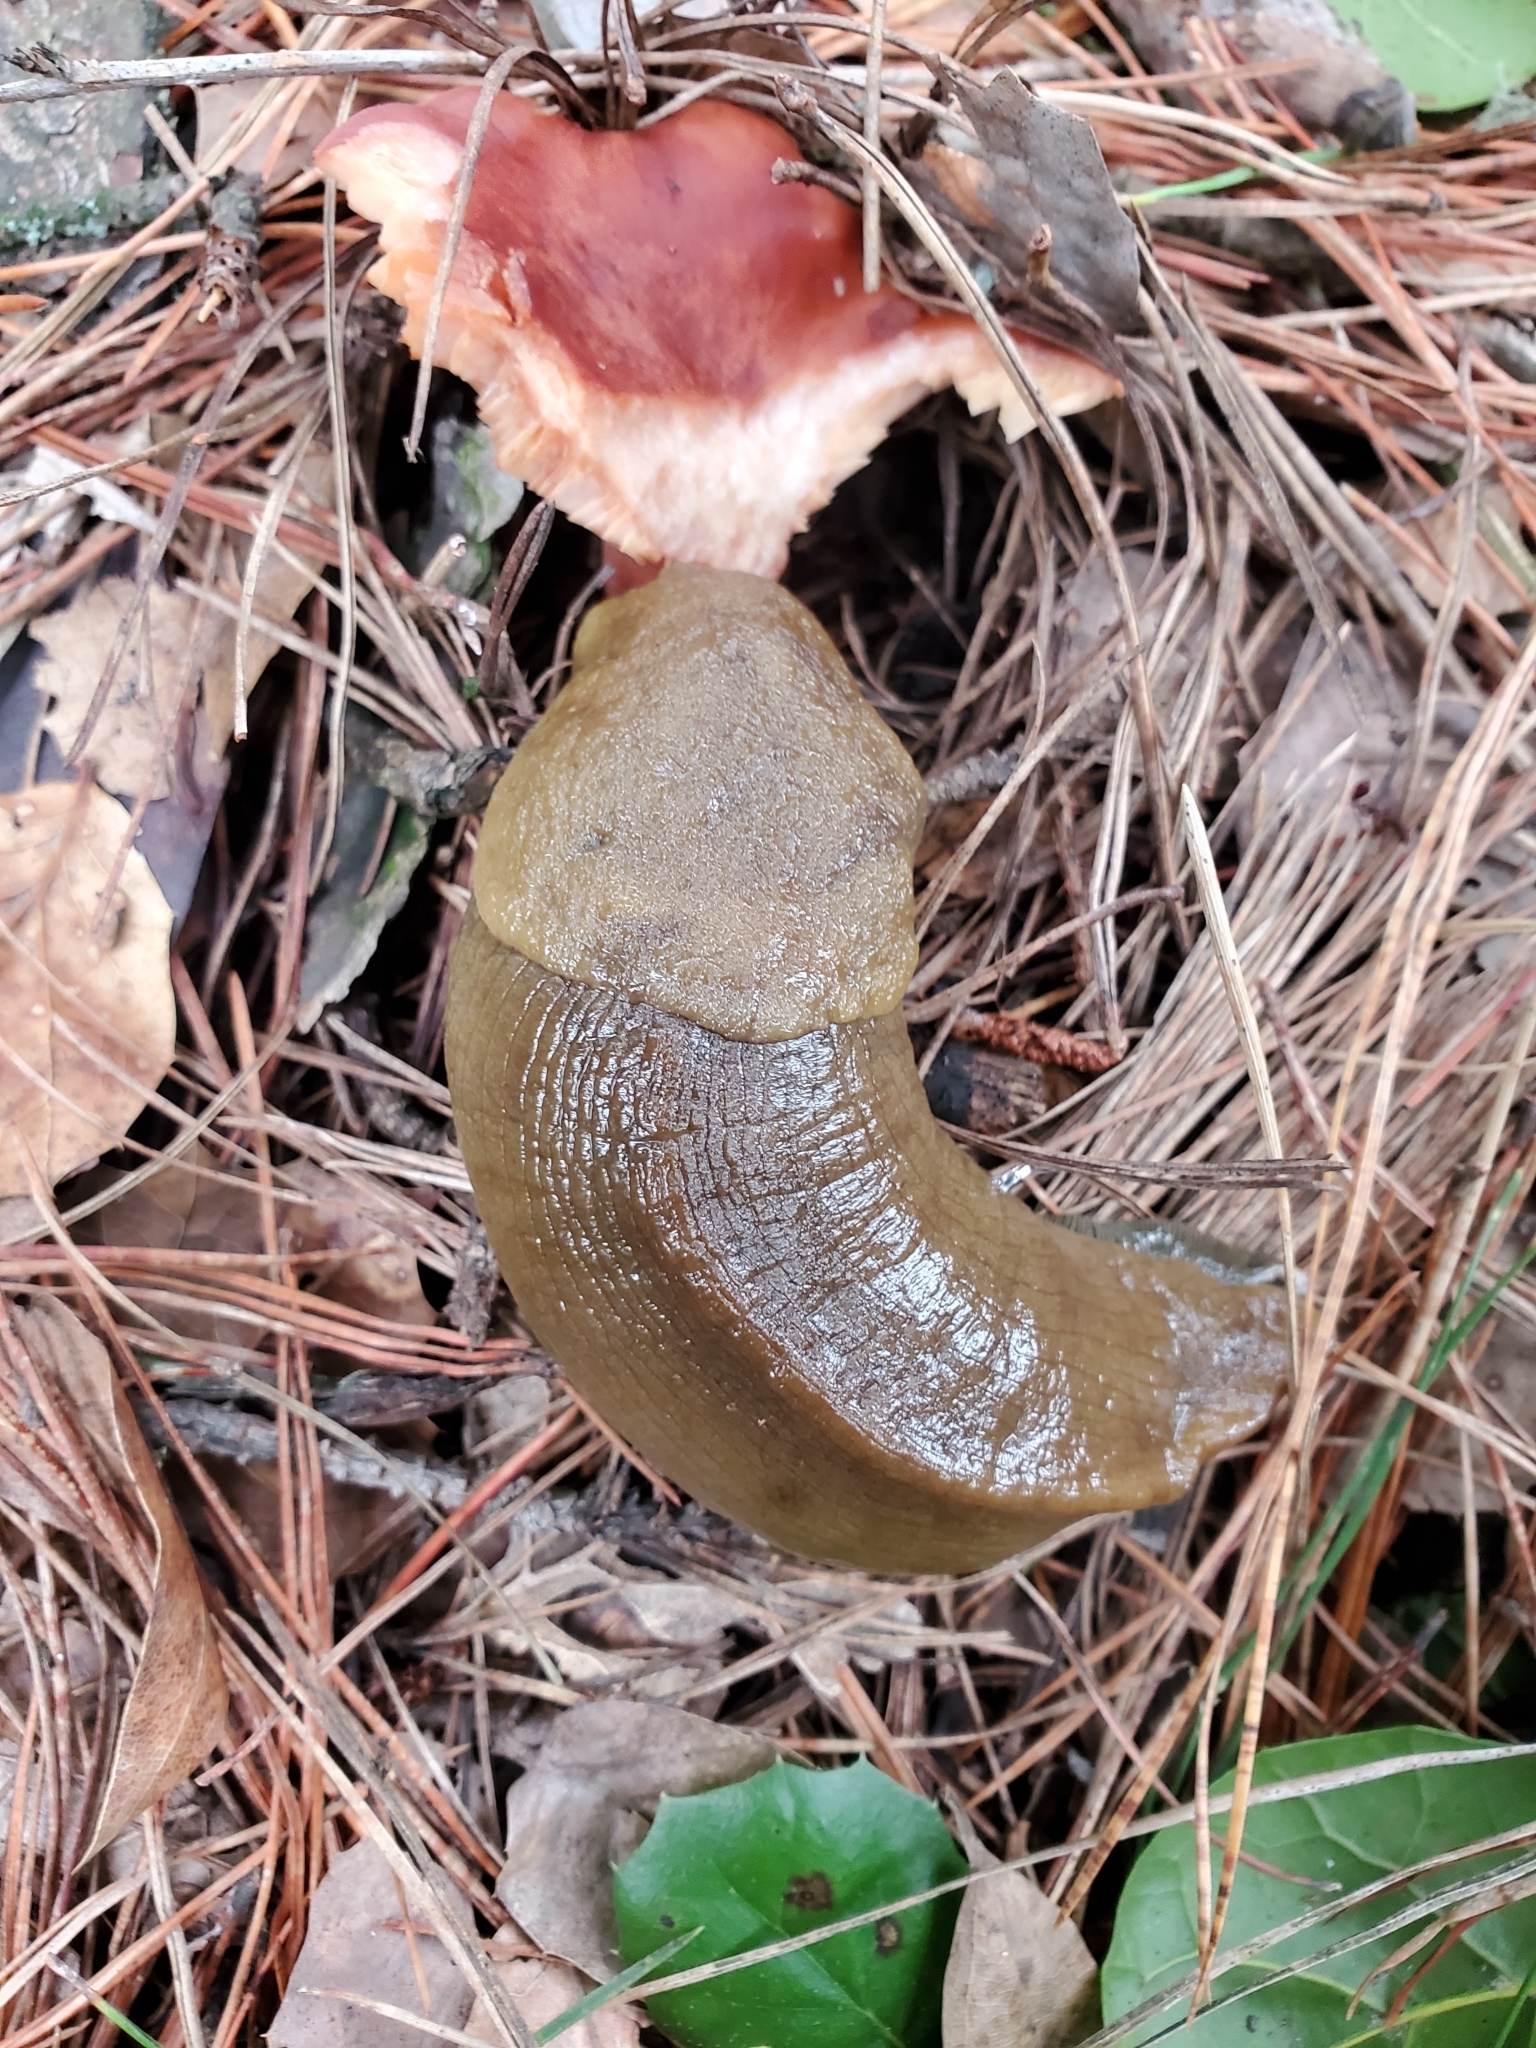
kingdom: Animalia
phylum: Mollusca
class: Gastropoda
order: Stylommatophora
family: Ariolimacidae
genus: Ariolimax
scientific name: Ariolimax buttoni
